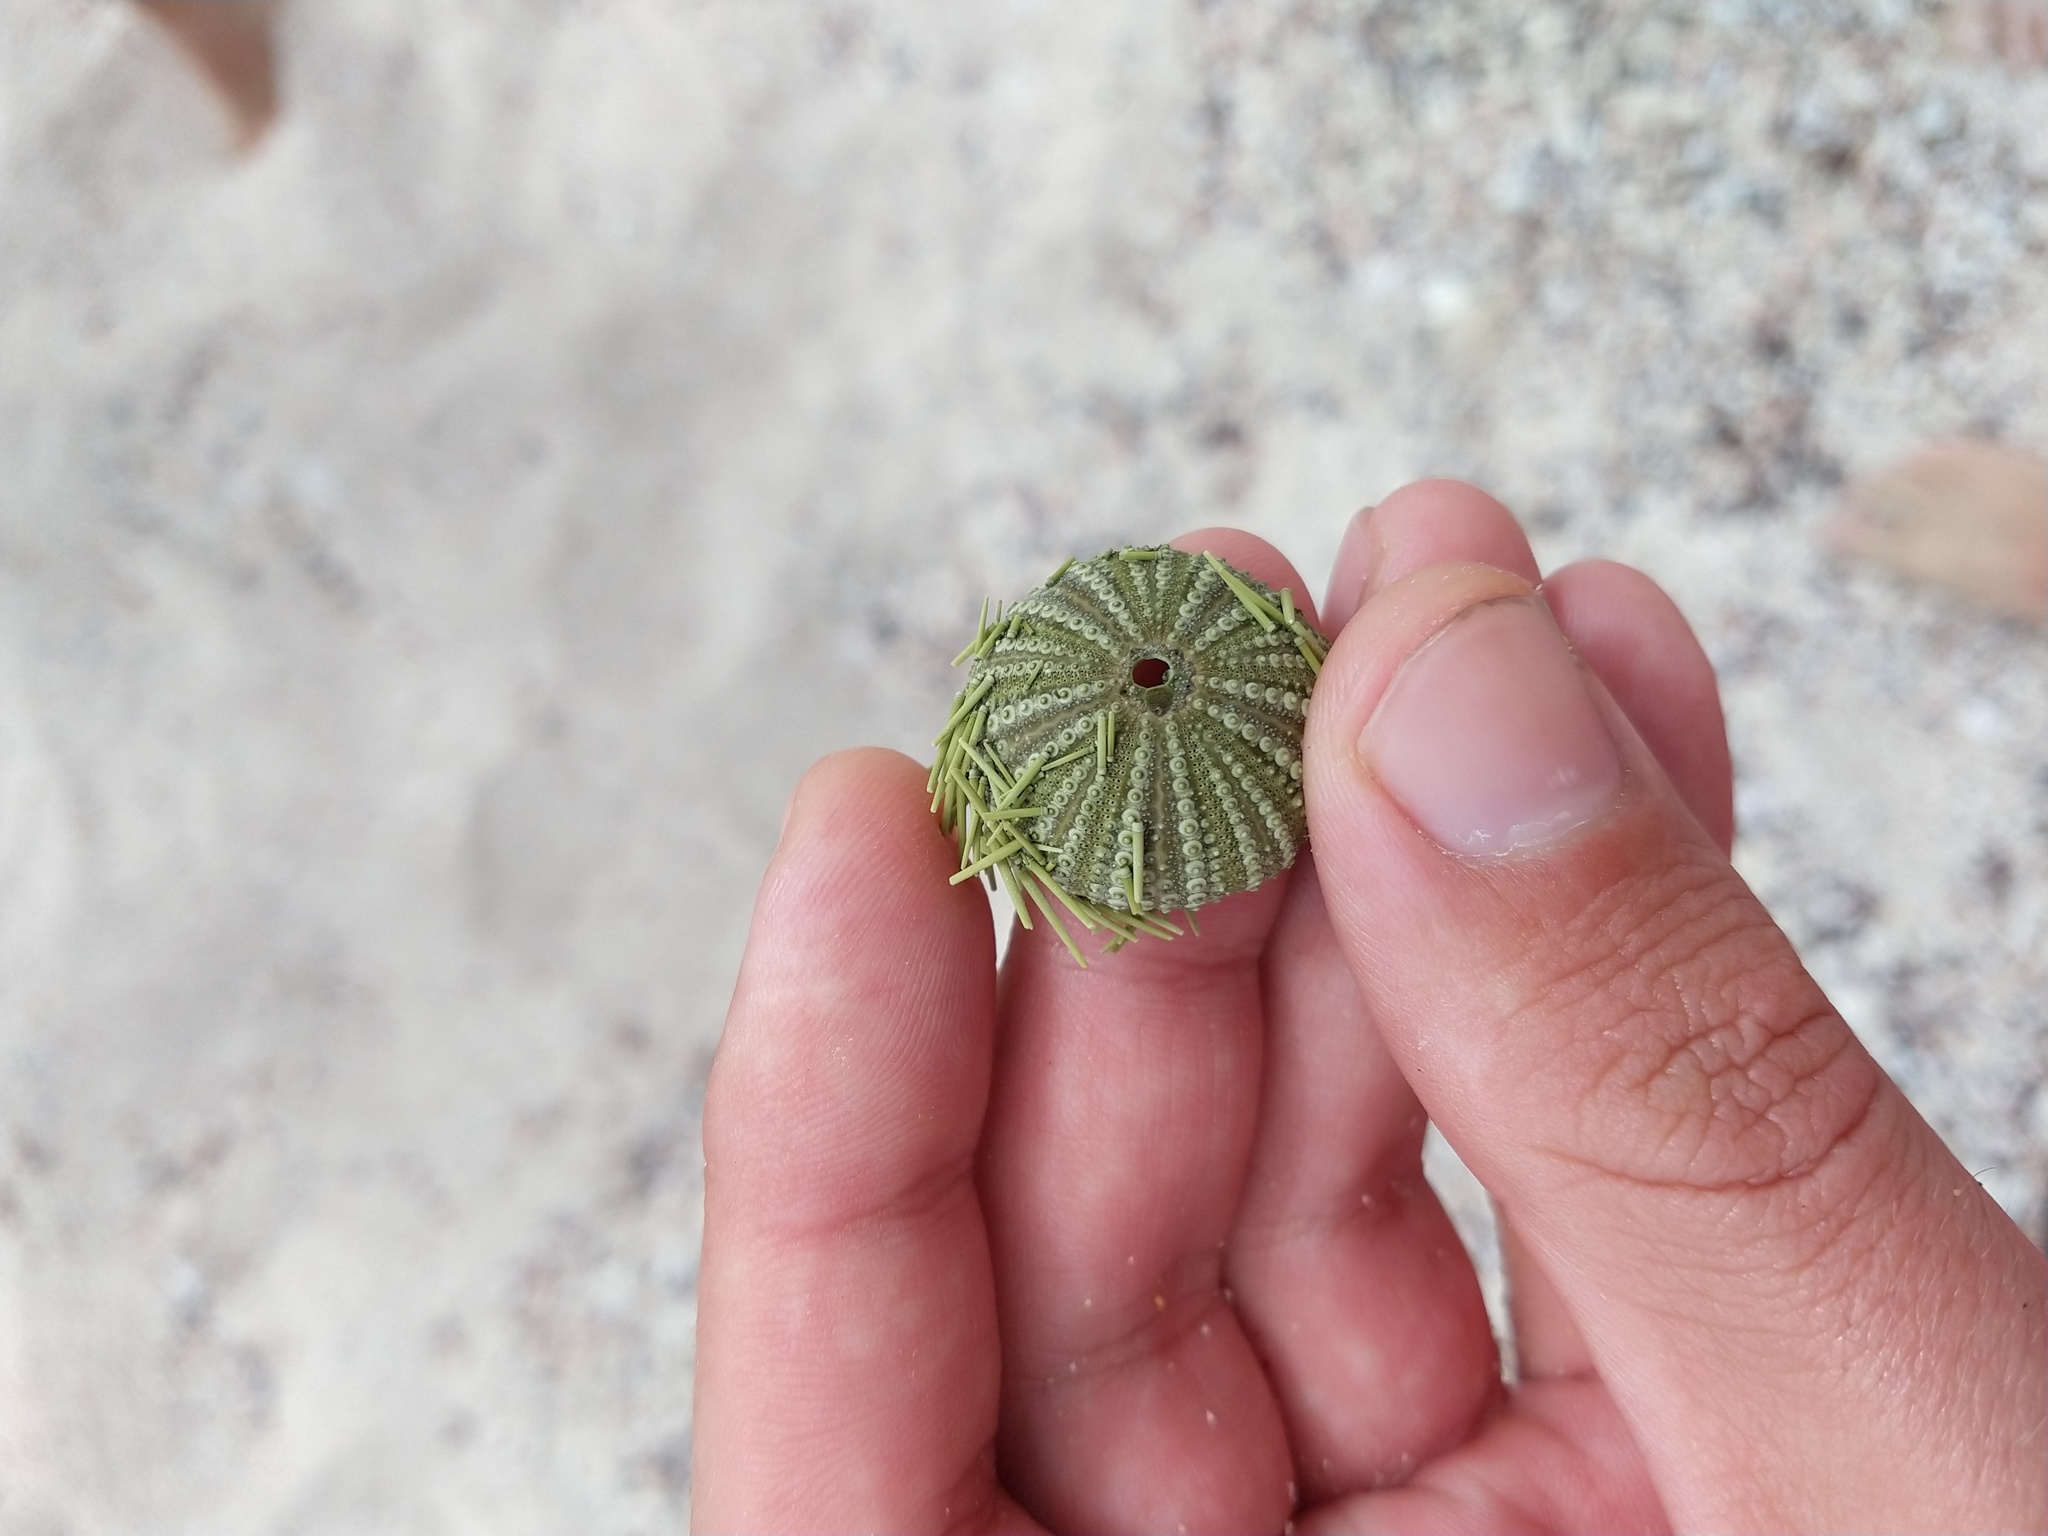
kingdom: Animalia
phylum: Echinodermata
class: Echinoidea
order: Camarodonta
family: Toxopneustidae
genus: Lytechinus
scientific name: Lytechinus semituberculatus
